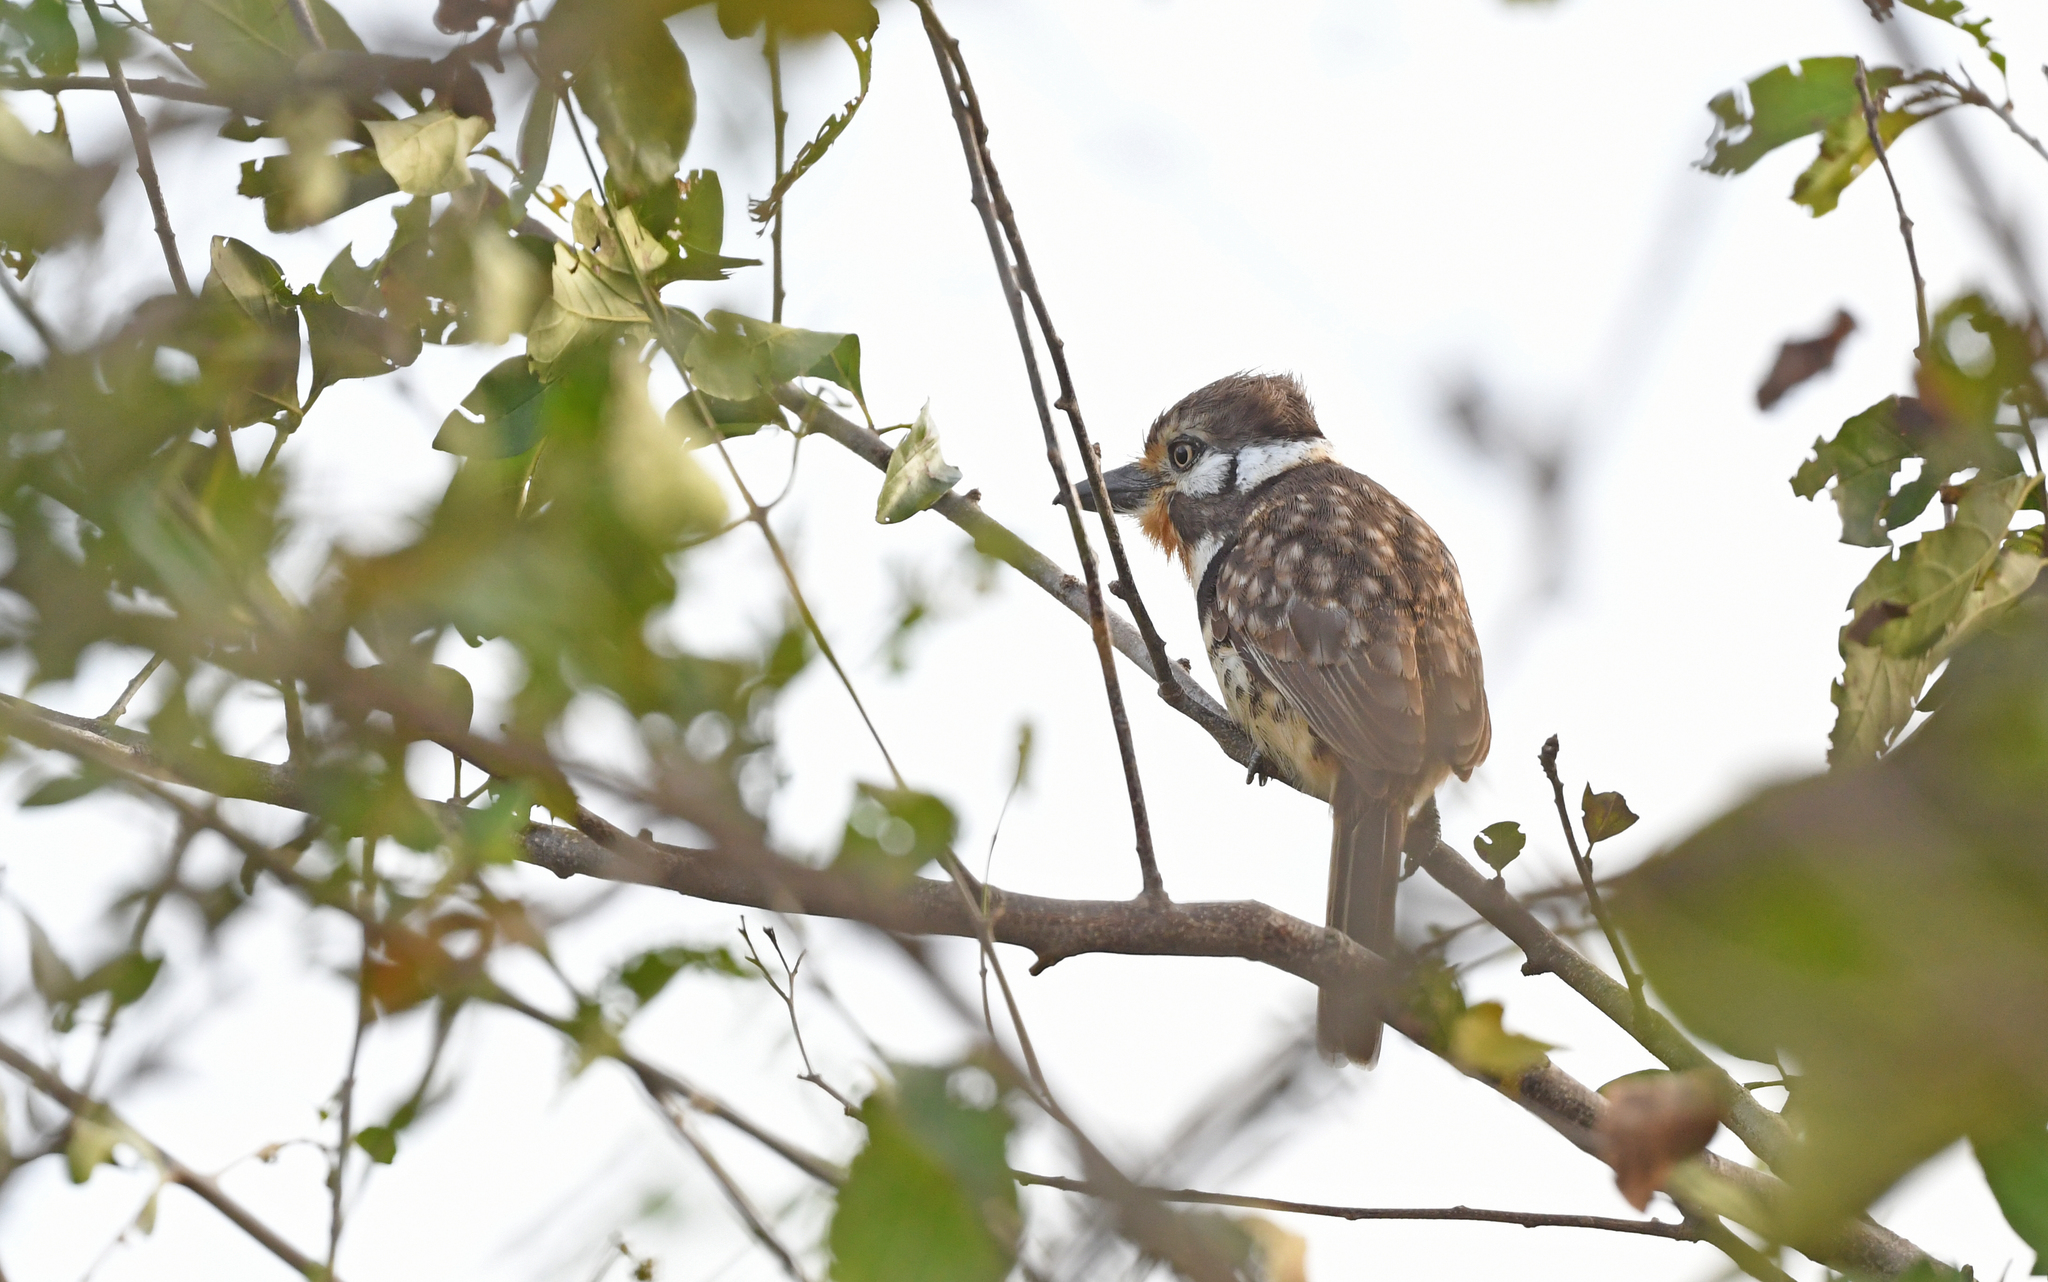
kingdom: Animalia
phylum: Chordata
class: Aves
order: Piciformes
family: Bucconidae
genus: Hypnelus
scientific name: Hypnelus ruficollis
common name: Russet-throated puffbird
